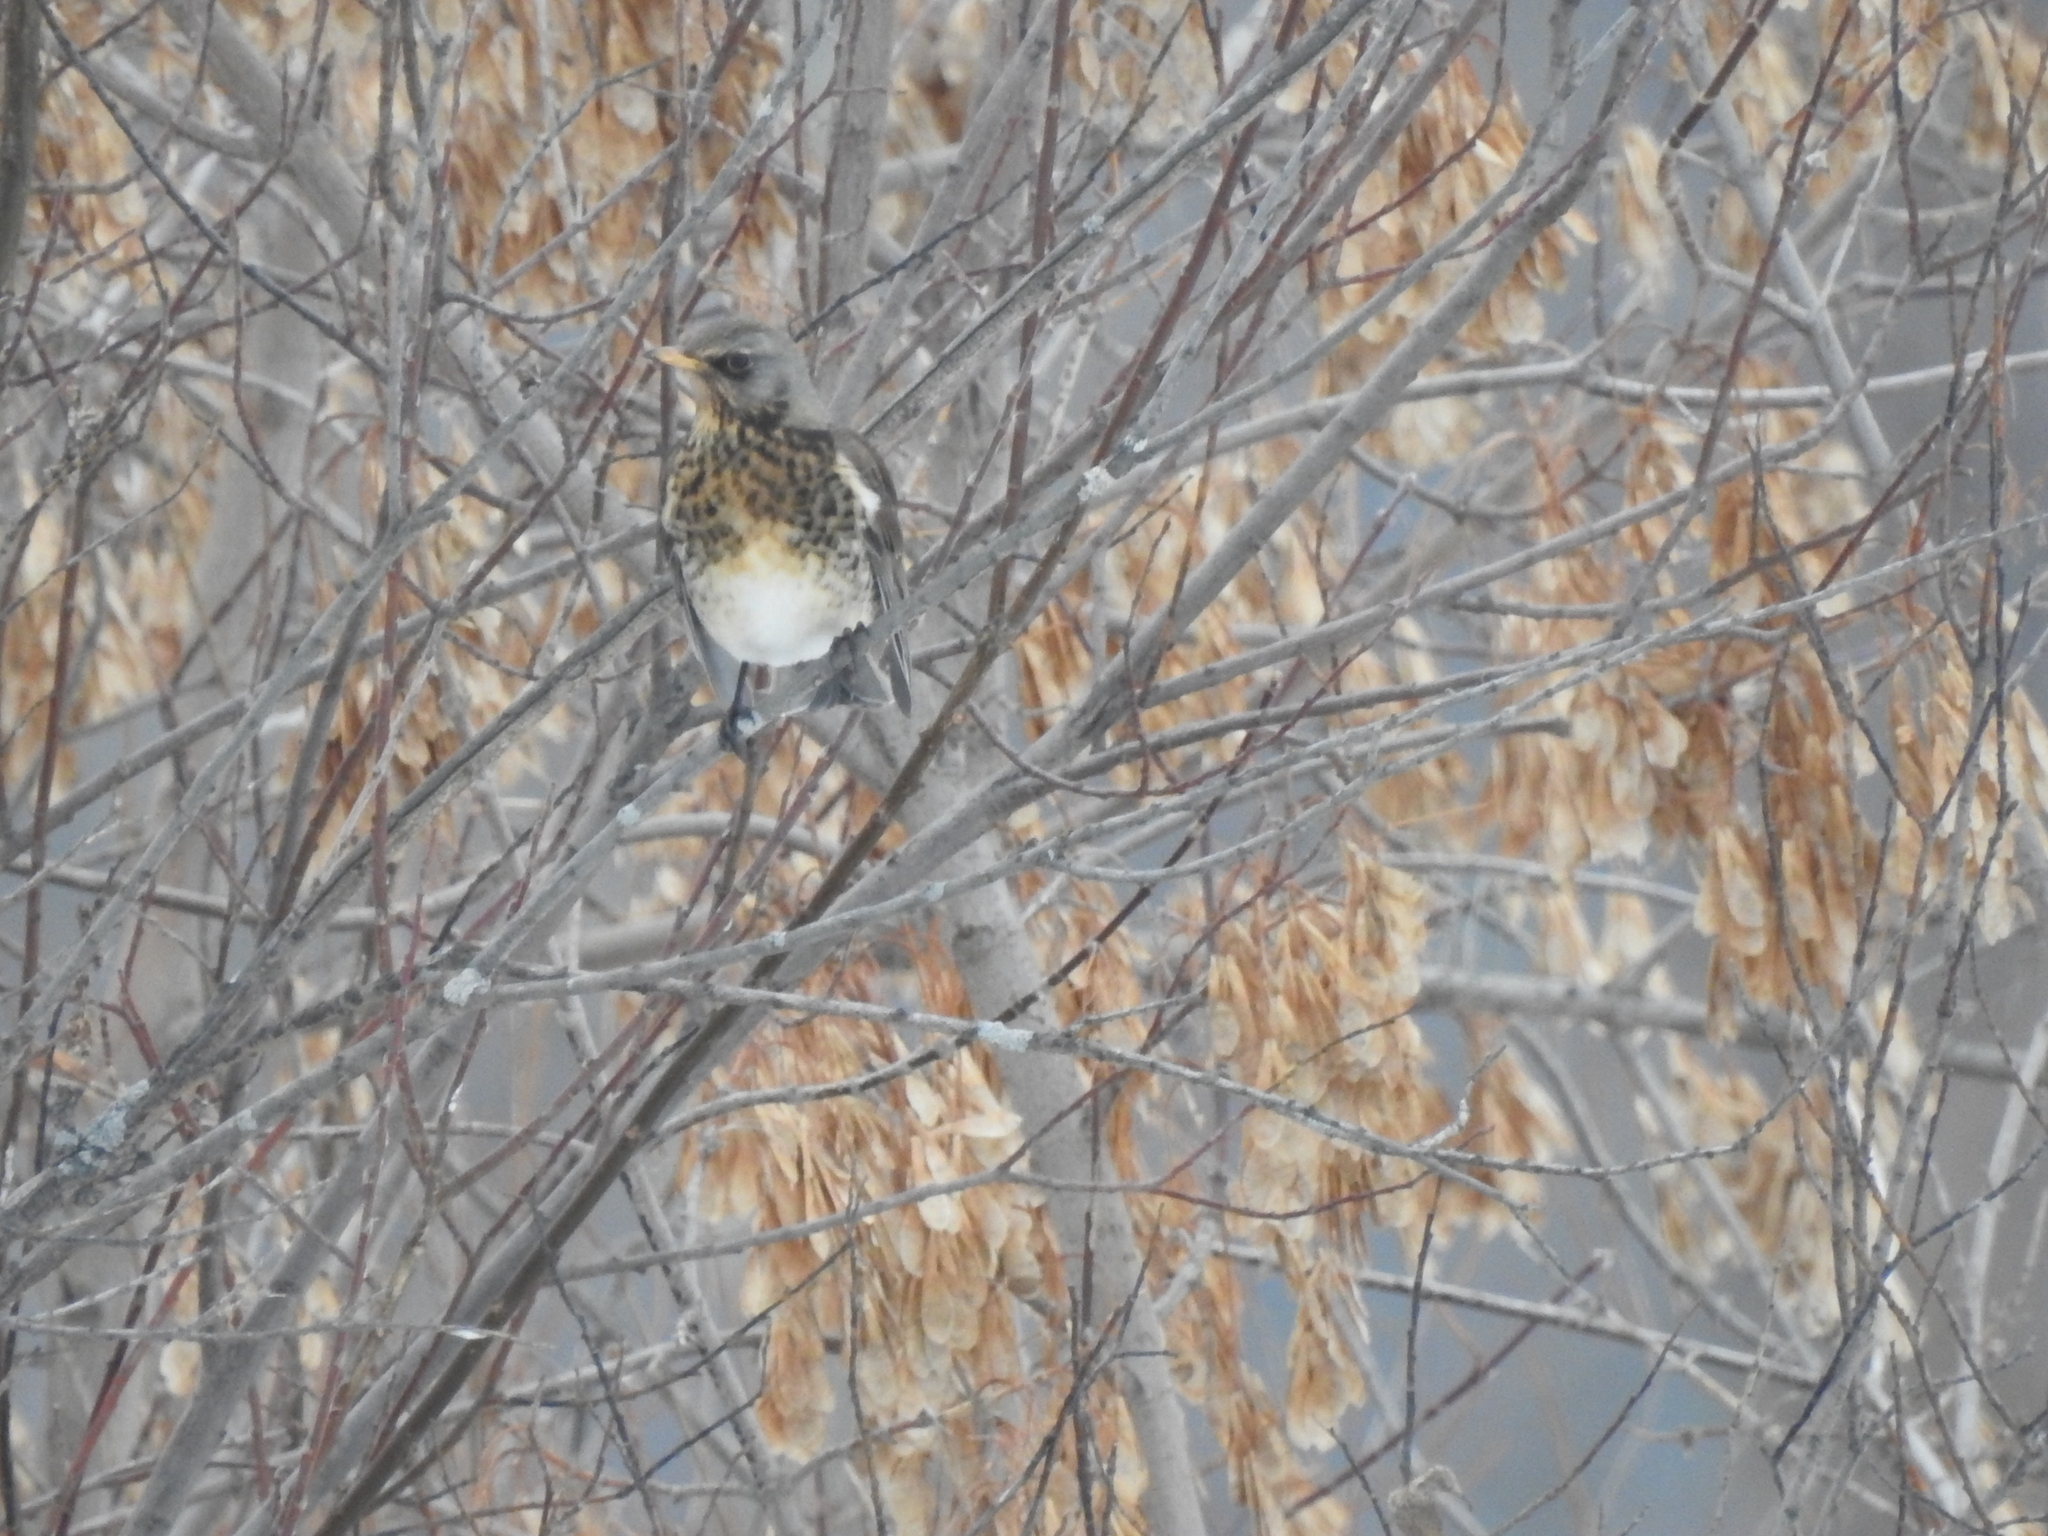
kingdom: Animalia
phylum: Chordata
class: Aves
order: Passeriformes
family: Turdidae
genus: Turdus
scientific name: Turdus pilaris
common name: Fieldfare
